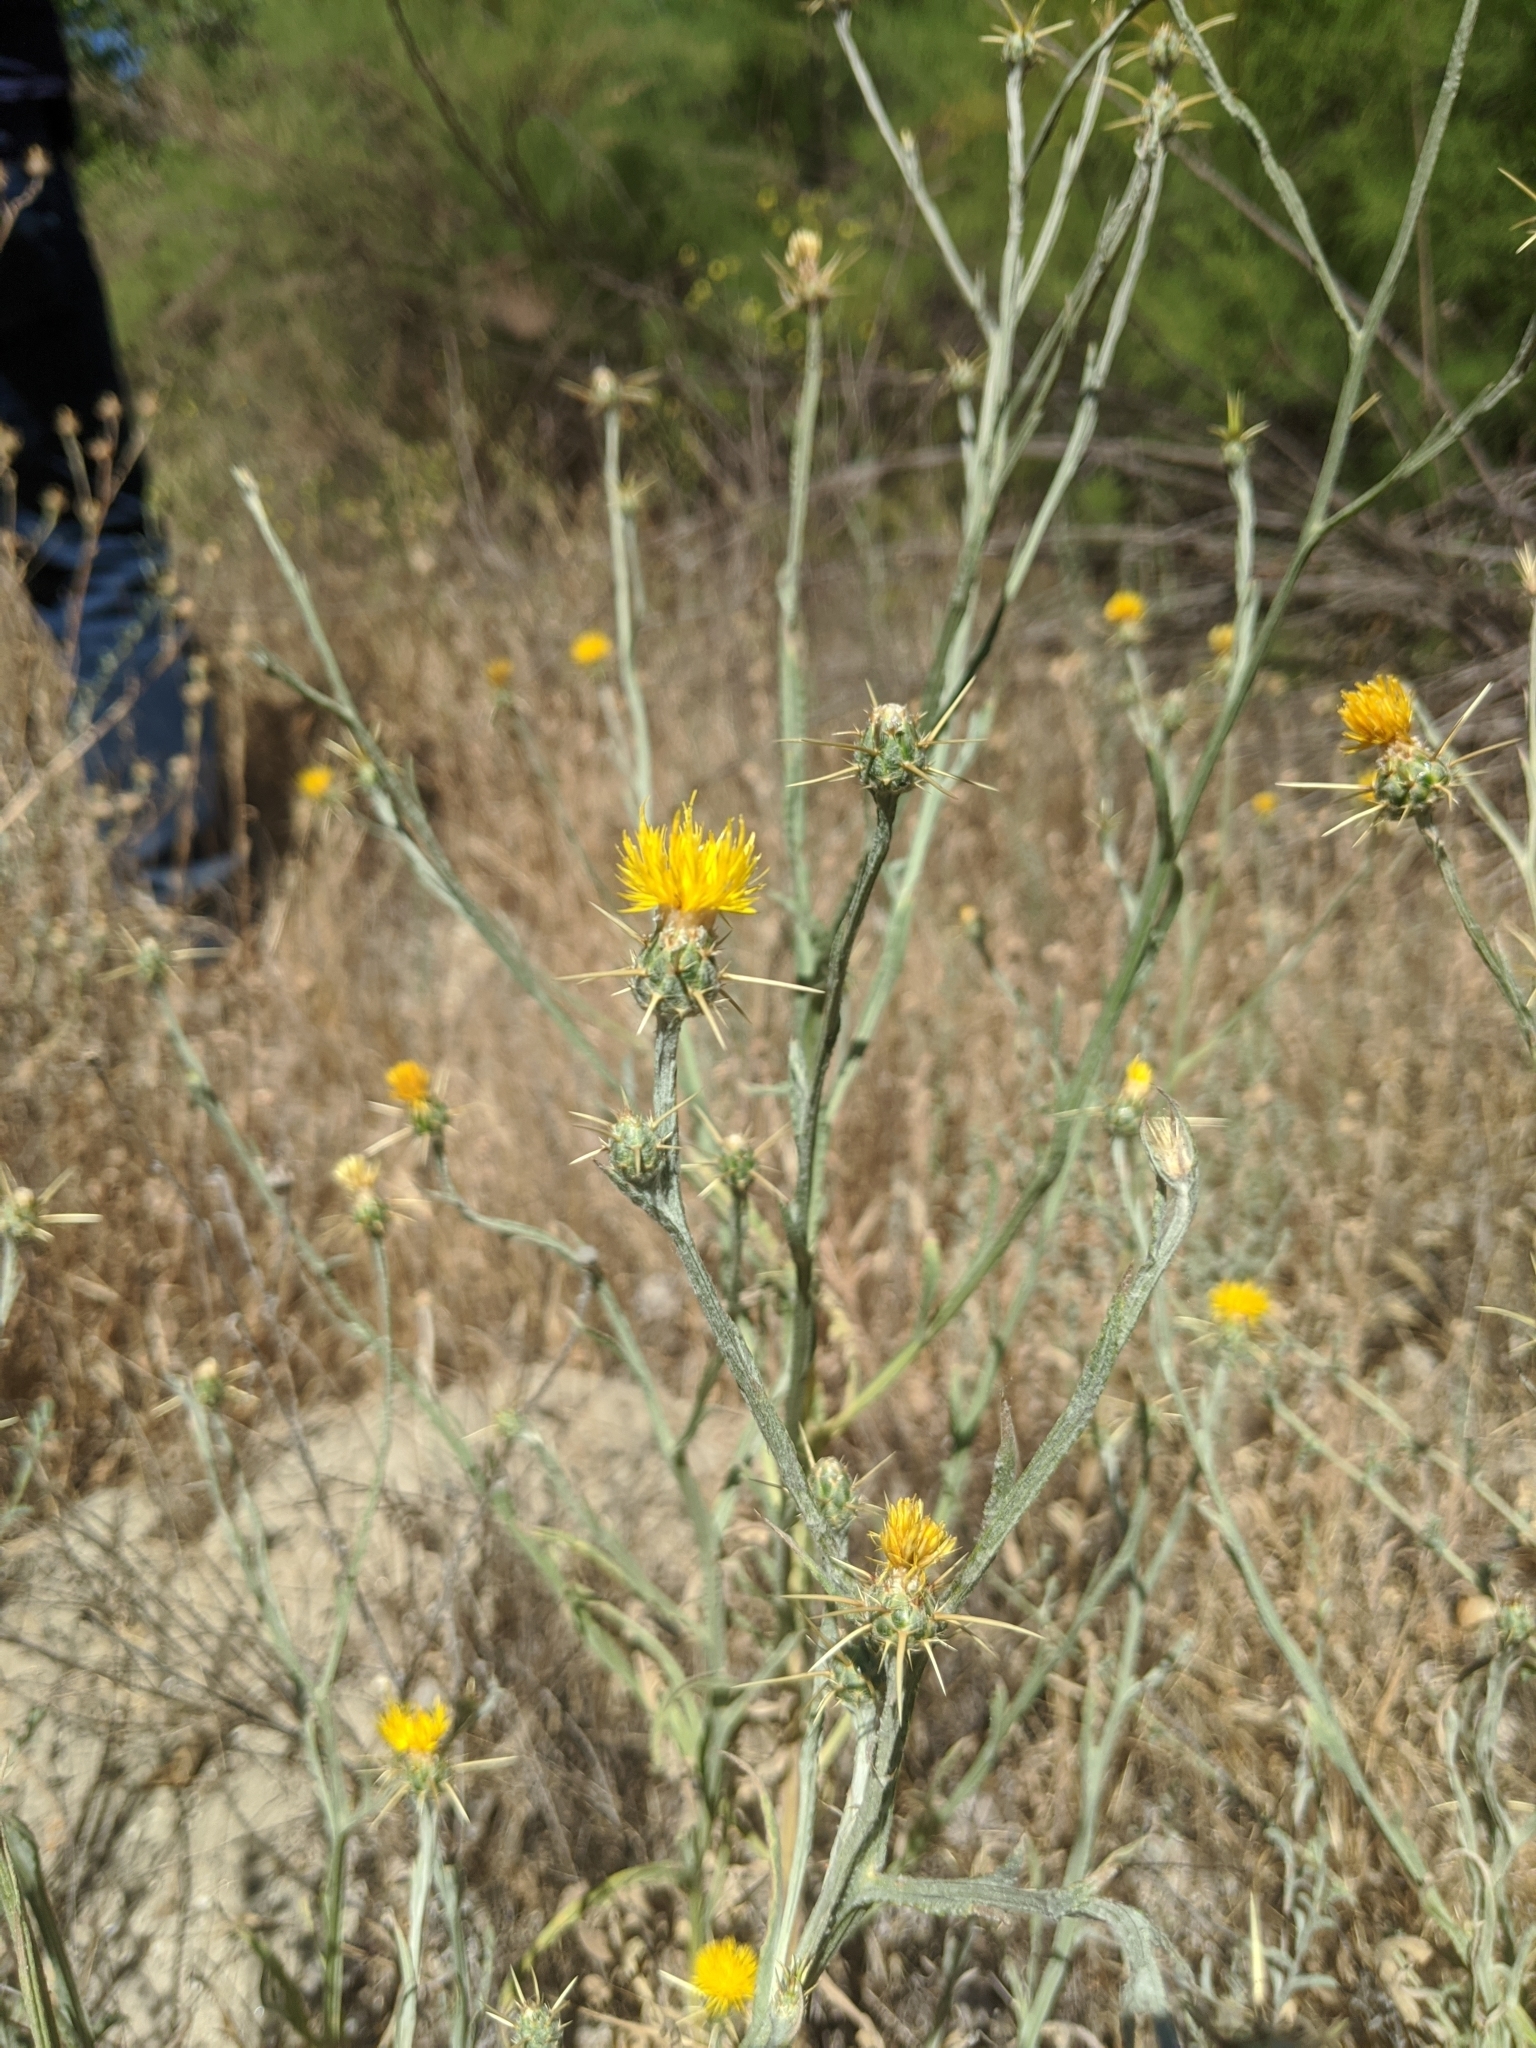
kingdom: Plantae
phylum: Tracheophyta
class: Magnoliopsida
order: Asterales
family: Asteraceae
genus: Centaurea
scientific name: Centaurea solstitialis
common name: Yellow star-thistle
